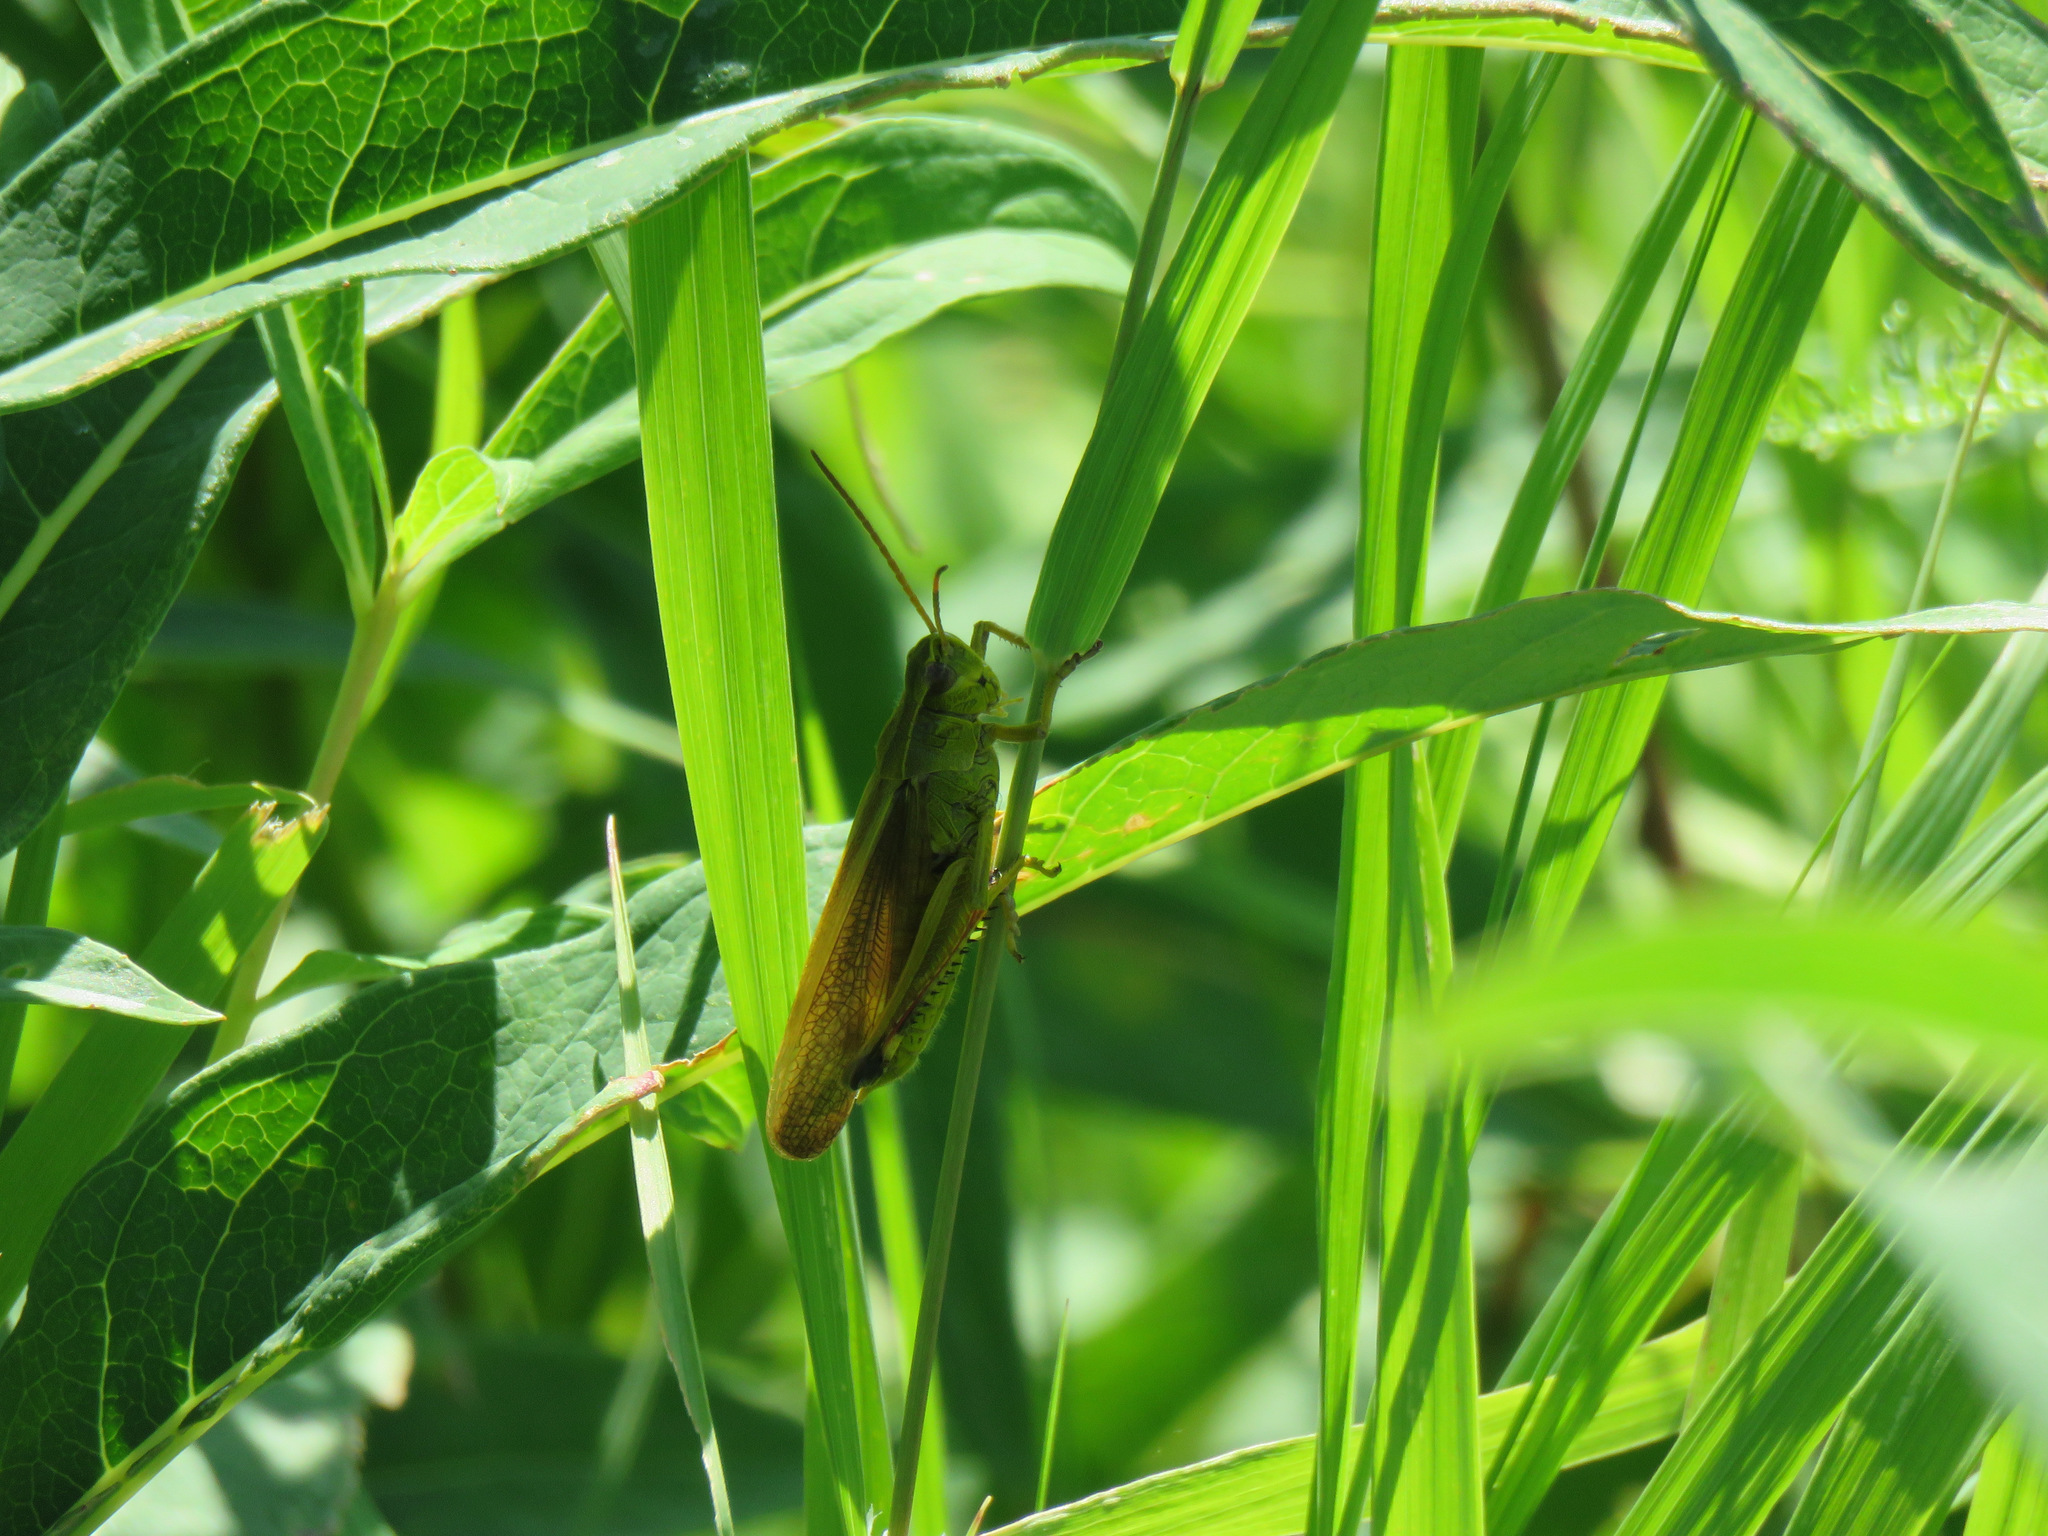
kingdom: Animalia
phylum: Arthropoda
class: Insecta
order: Orthoptera
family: Acrididae
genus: Stethophyma
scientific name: Stethophyma gracile
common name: Graceful sedge grasshopper
